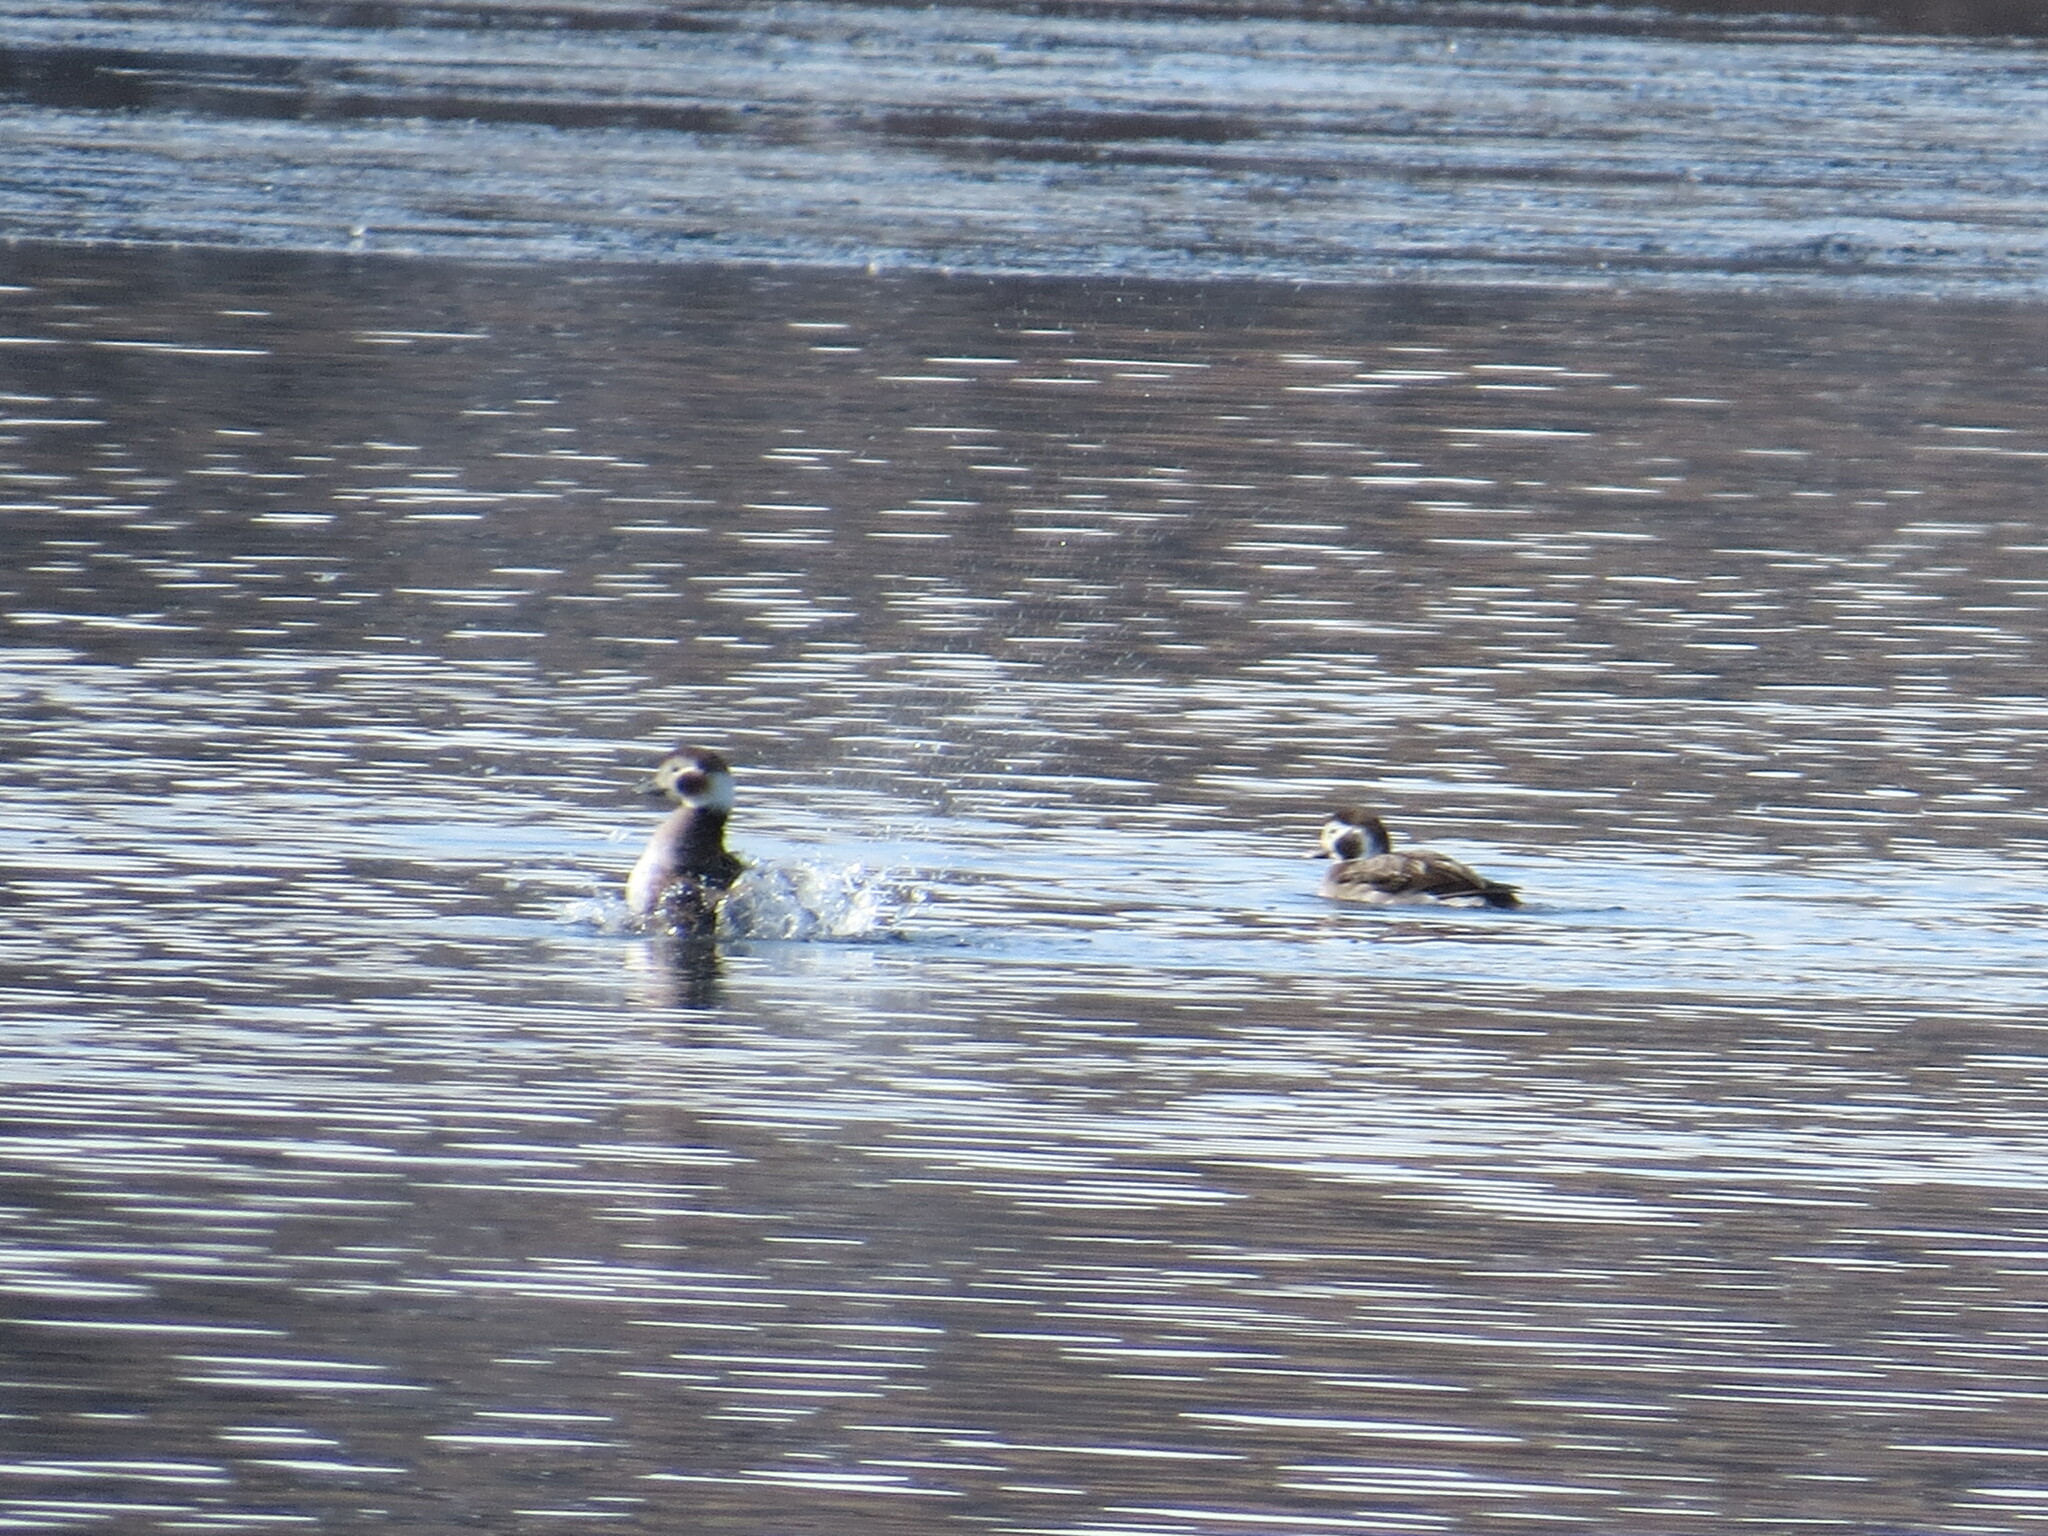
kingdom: Animalia
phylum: Chordata
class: Aves
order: Anseriformes
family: Anatidae
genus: Clangula
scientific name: Clangula hyemalis
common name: Long-tailed duck
